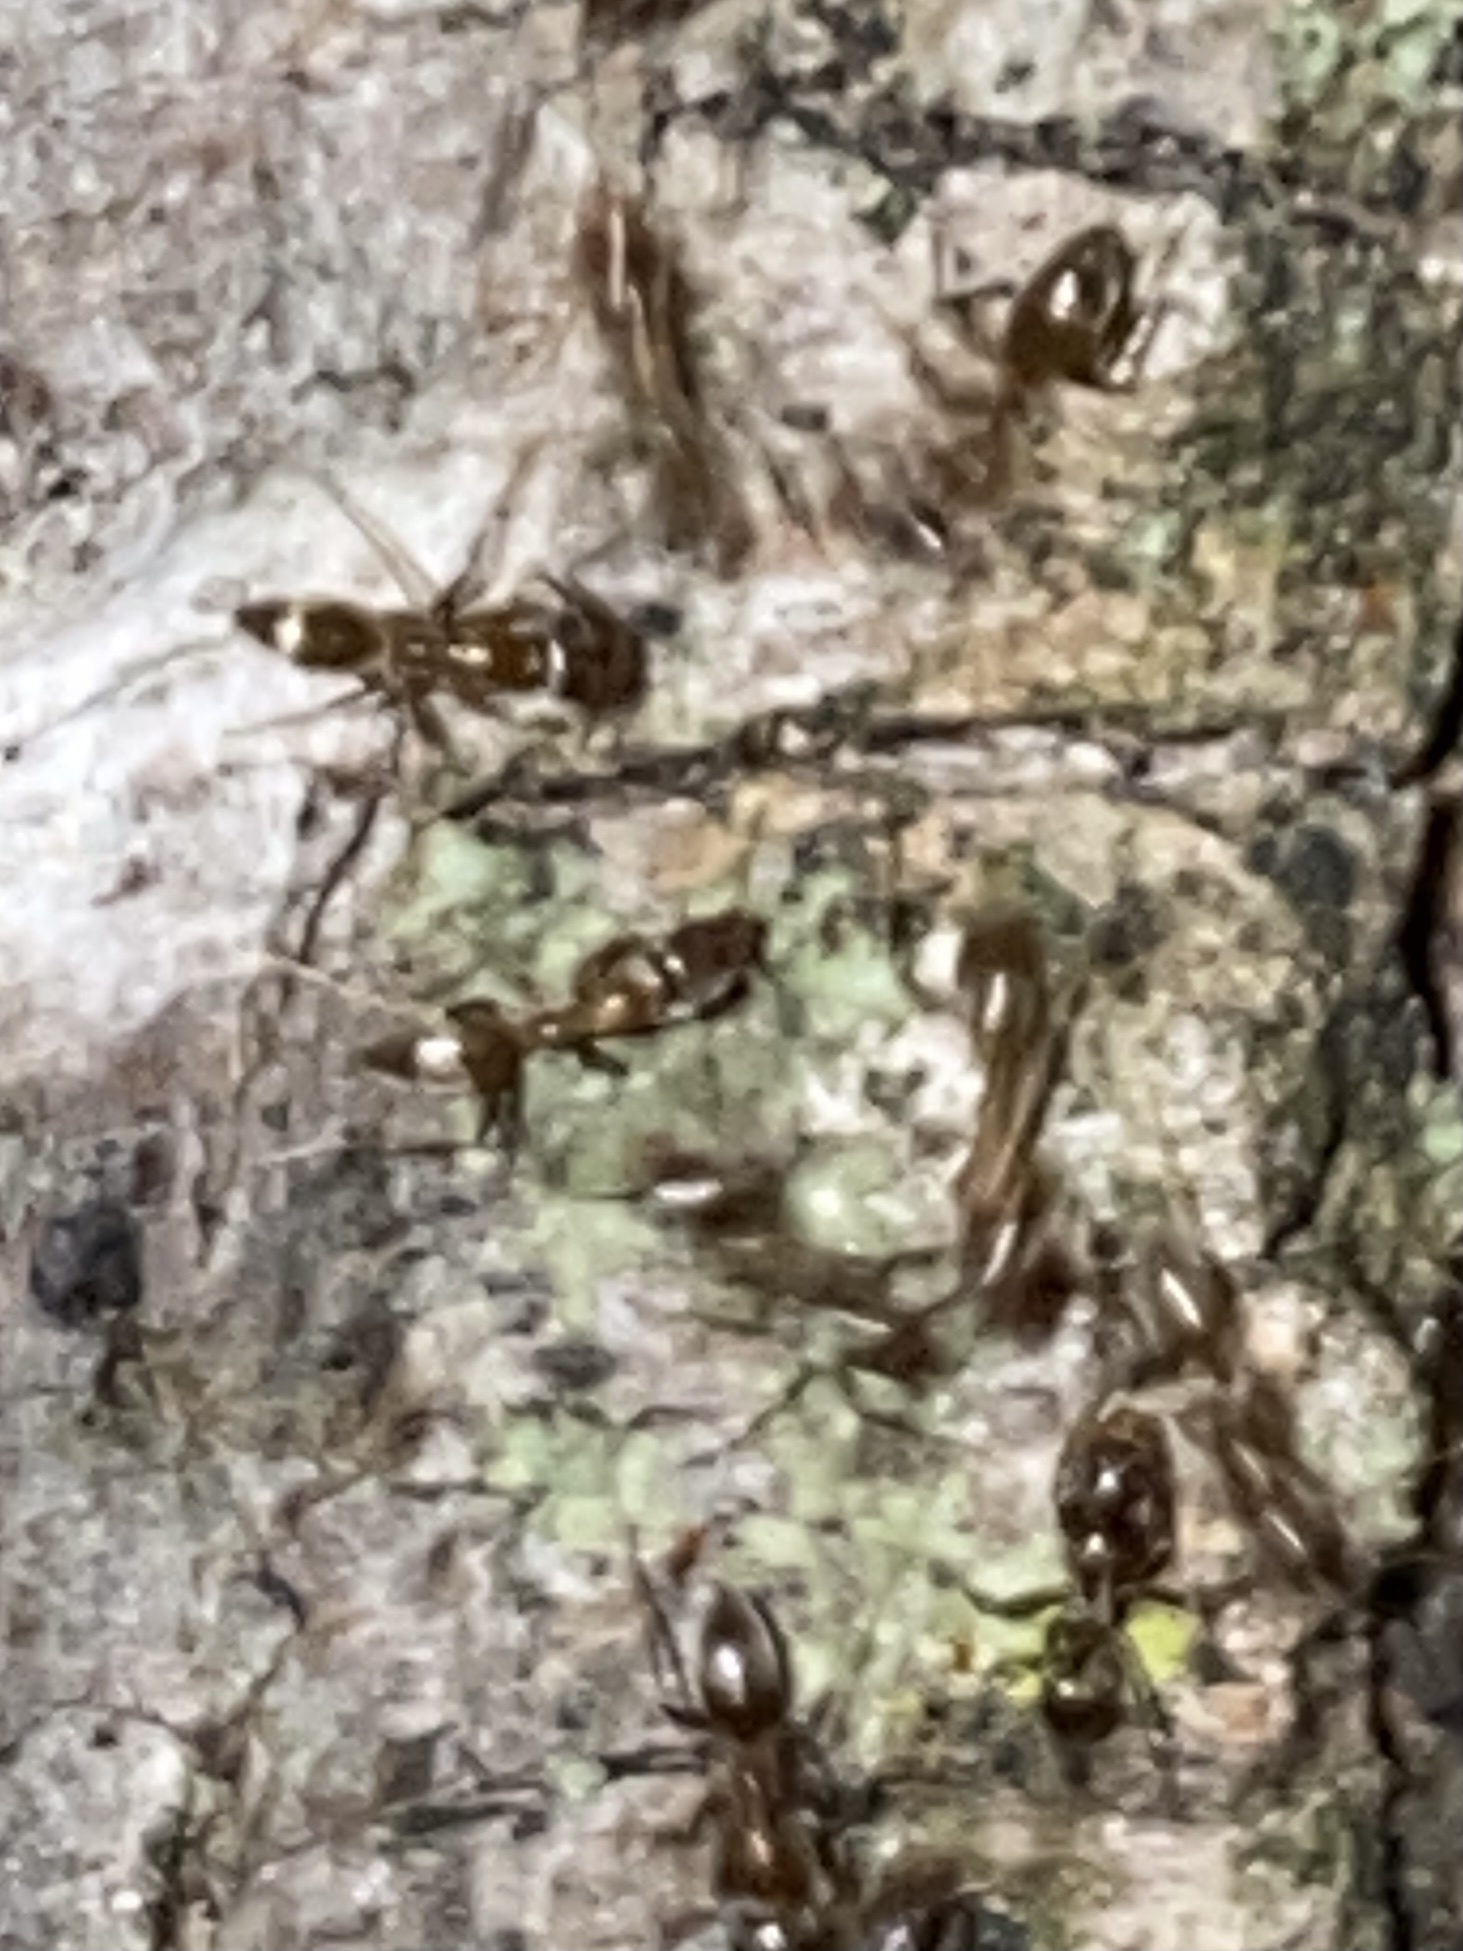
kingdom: Animalia
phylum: Arthropoda
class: Insecta
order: Hymenoptera
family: Formicidae
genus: Linepithema
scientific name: Linepithema humile
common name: Argentine ant
